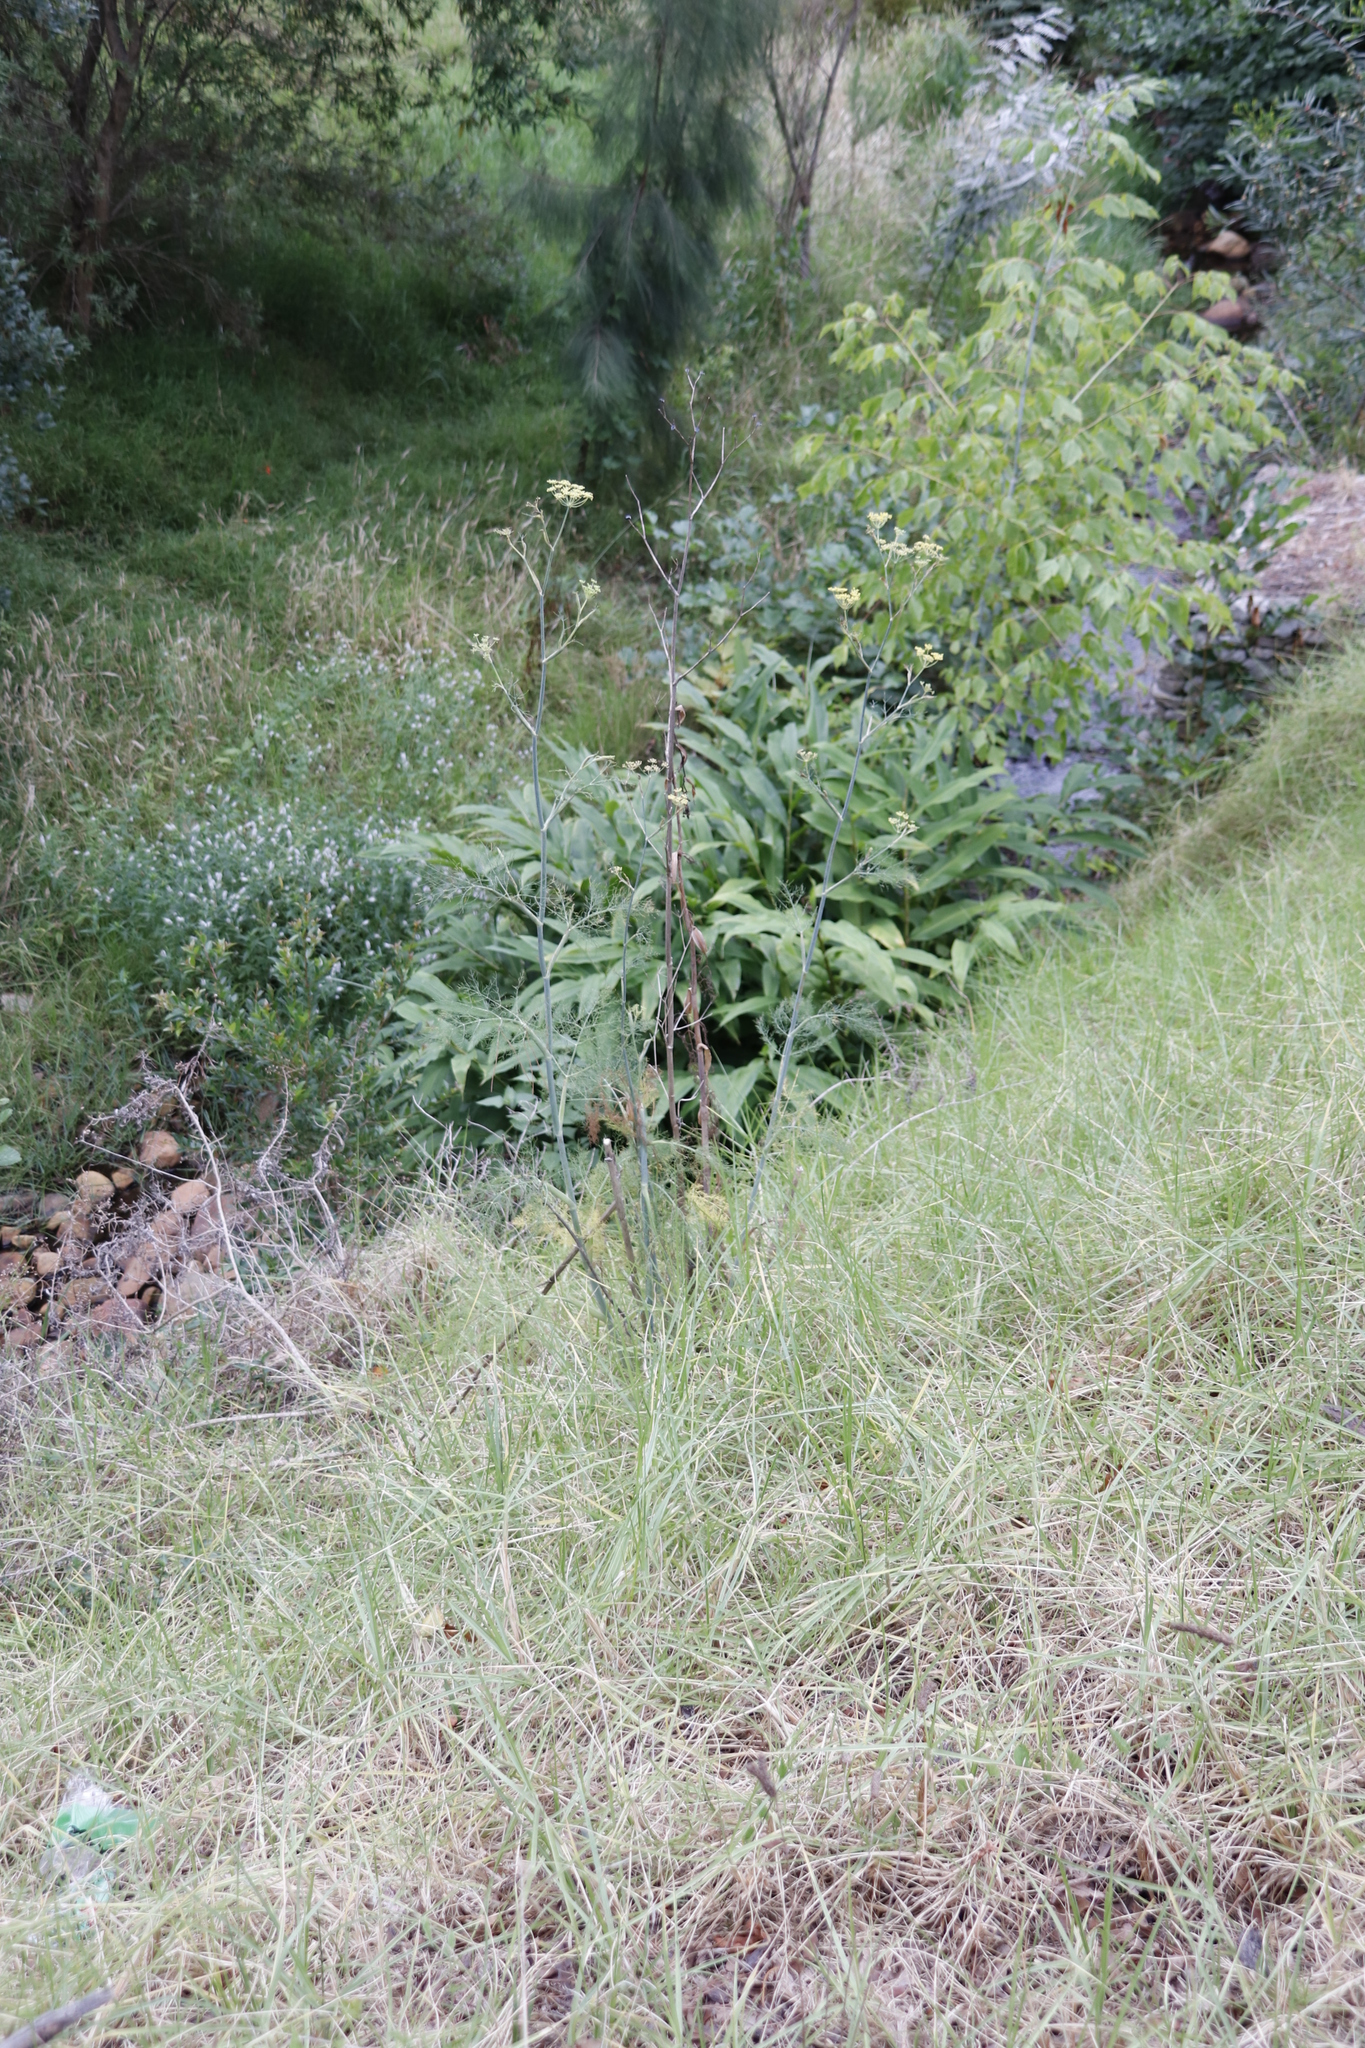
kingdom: Plantae
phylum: Tracheophyta
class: Magnoliopsida
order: Apiales
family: Apiaceae
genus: Foeniculum
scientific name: Foeniculum vulgare
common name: Fennel
